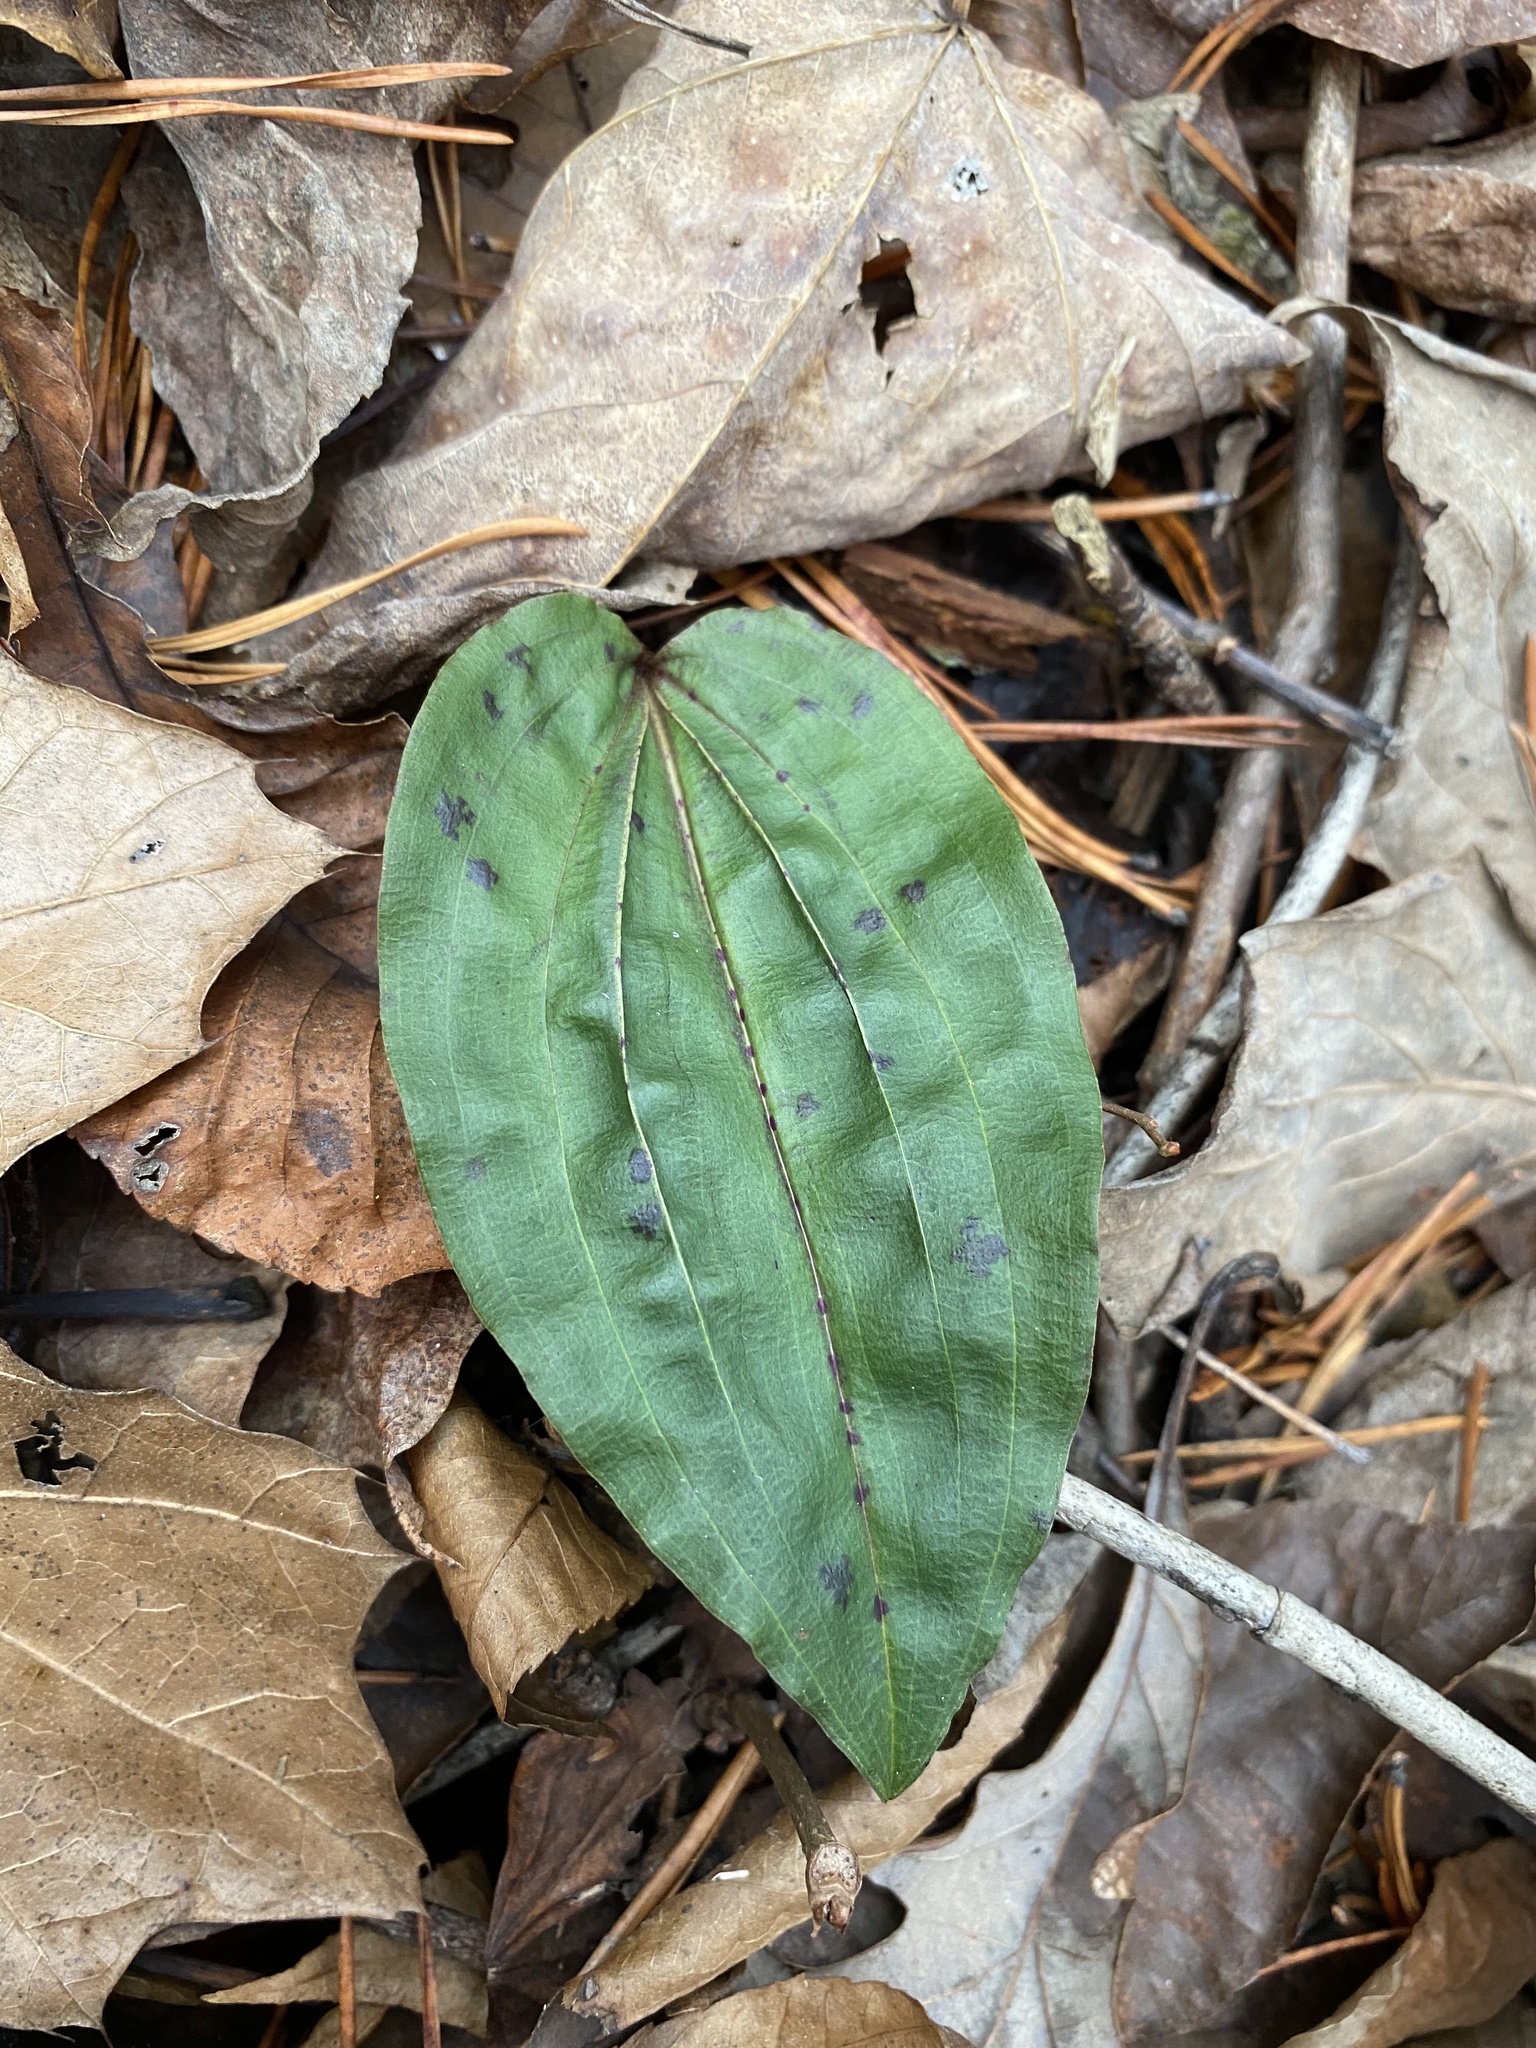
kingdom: Plantae
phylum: Tracheophyta
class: Liliopsida
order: Asparagales
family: Orchidaceae
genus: Tipularia
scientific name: Tipularia discolor
